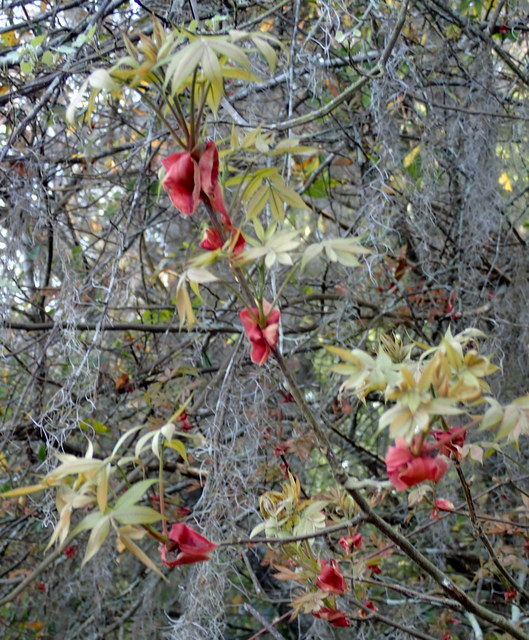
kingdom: Plantae
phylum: Tracheophyta
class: Magnoliopsida
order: Fagales
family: Juglandaceae
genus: Carya
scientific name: Carya glabra
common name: Pignut hickory
